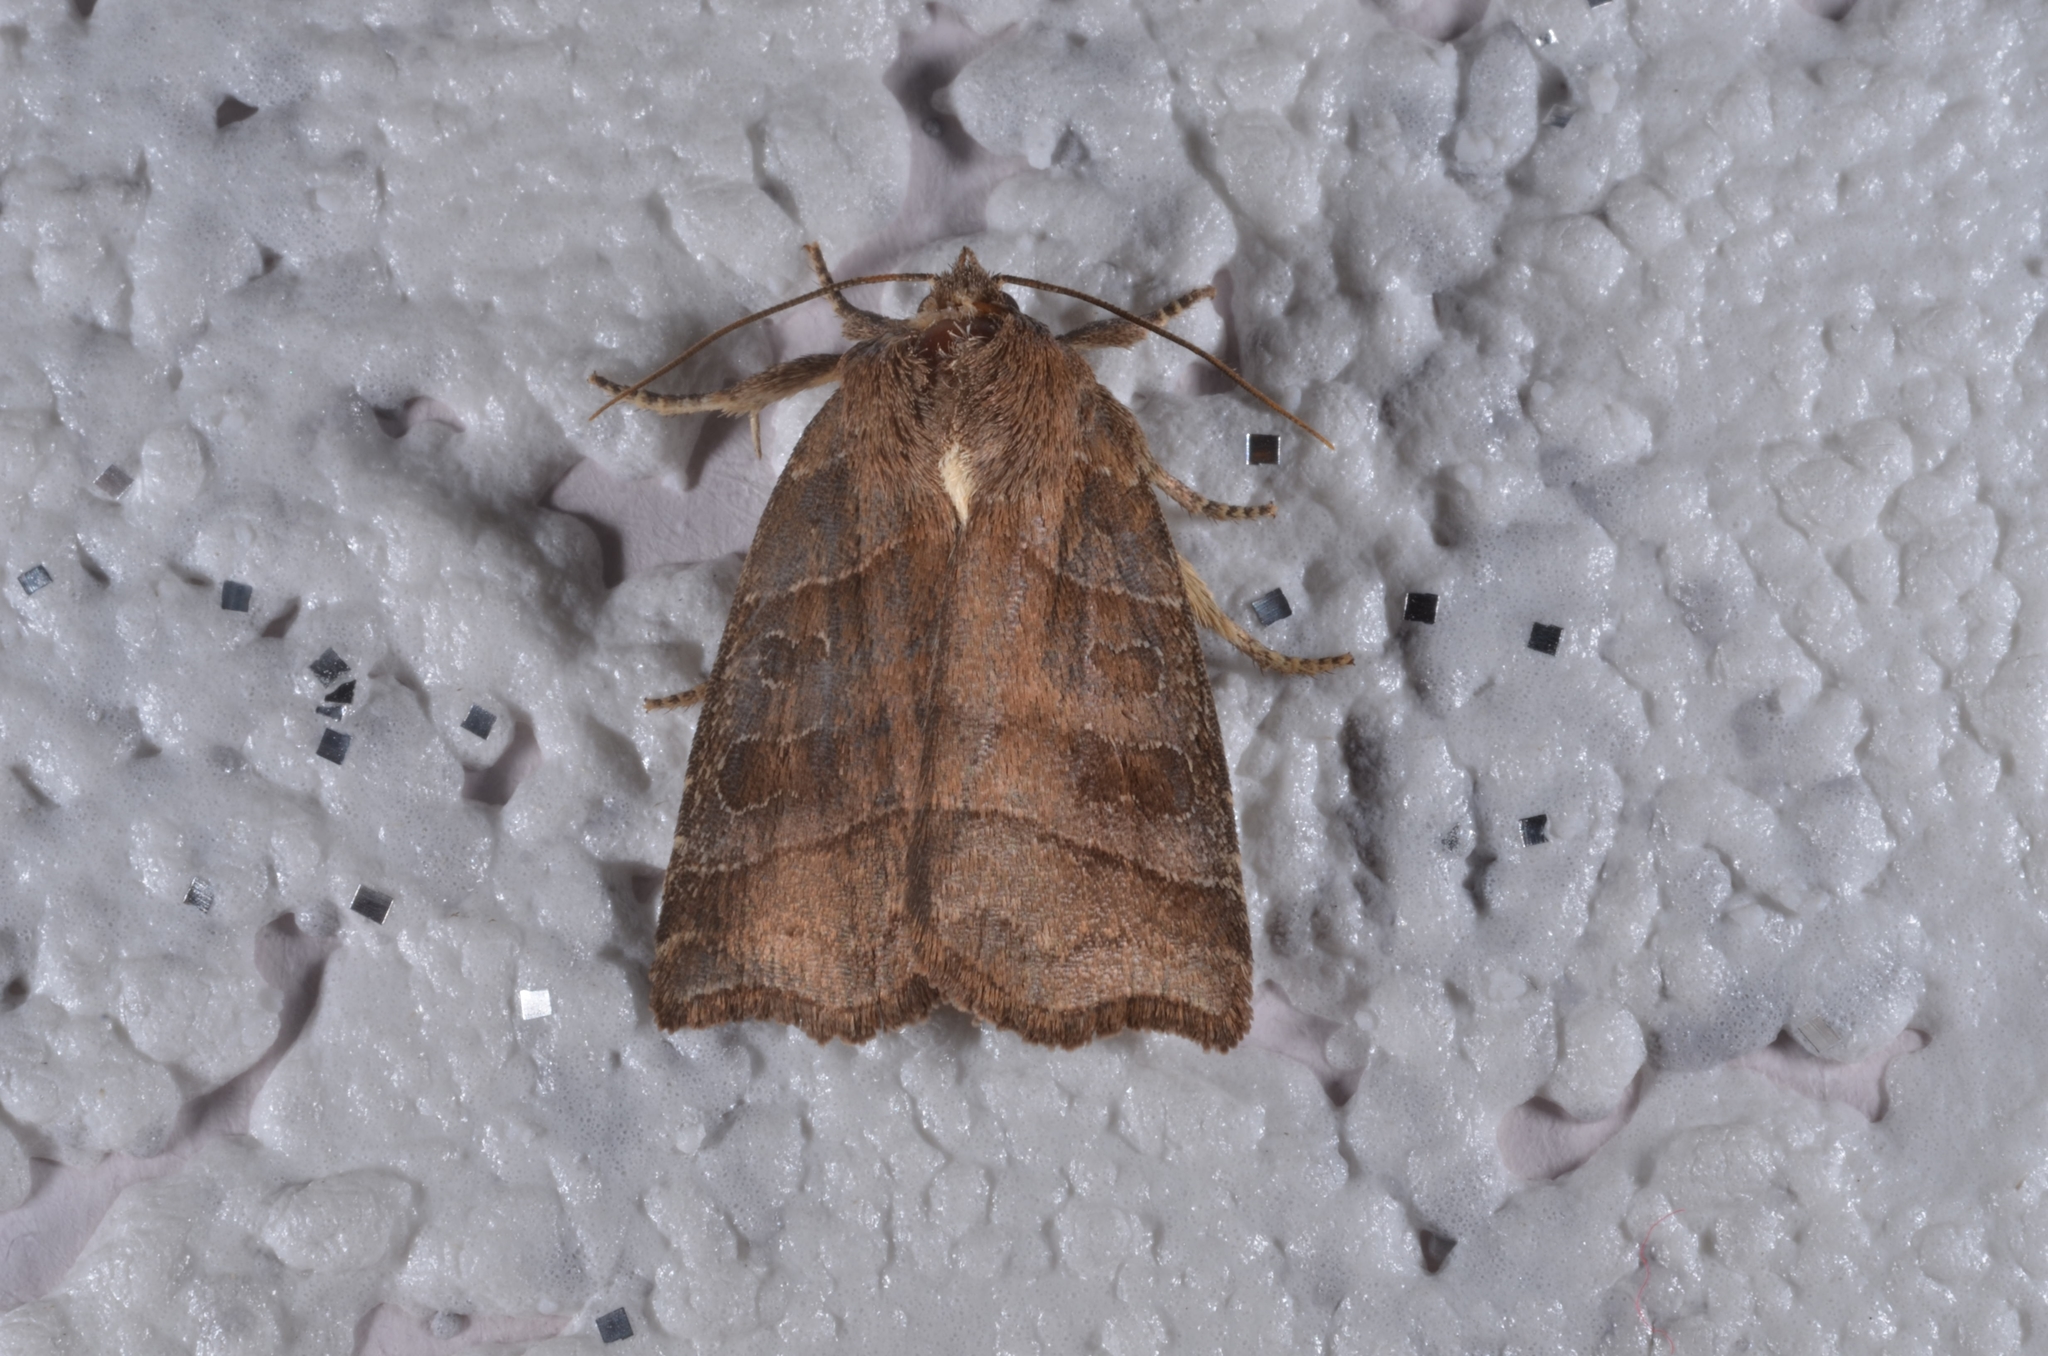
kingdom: Animalia
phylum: Arthropoda
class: Insecta
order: Lepidoptera
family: Noctuidae
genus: Ipimorpha
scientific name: Ipimorpha retusa
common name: Double kidney
